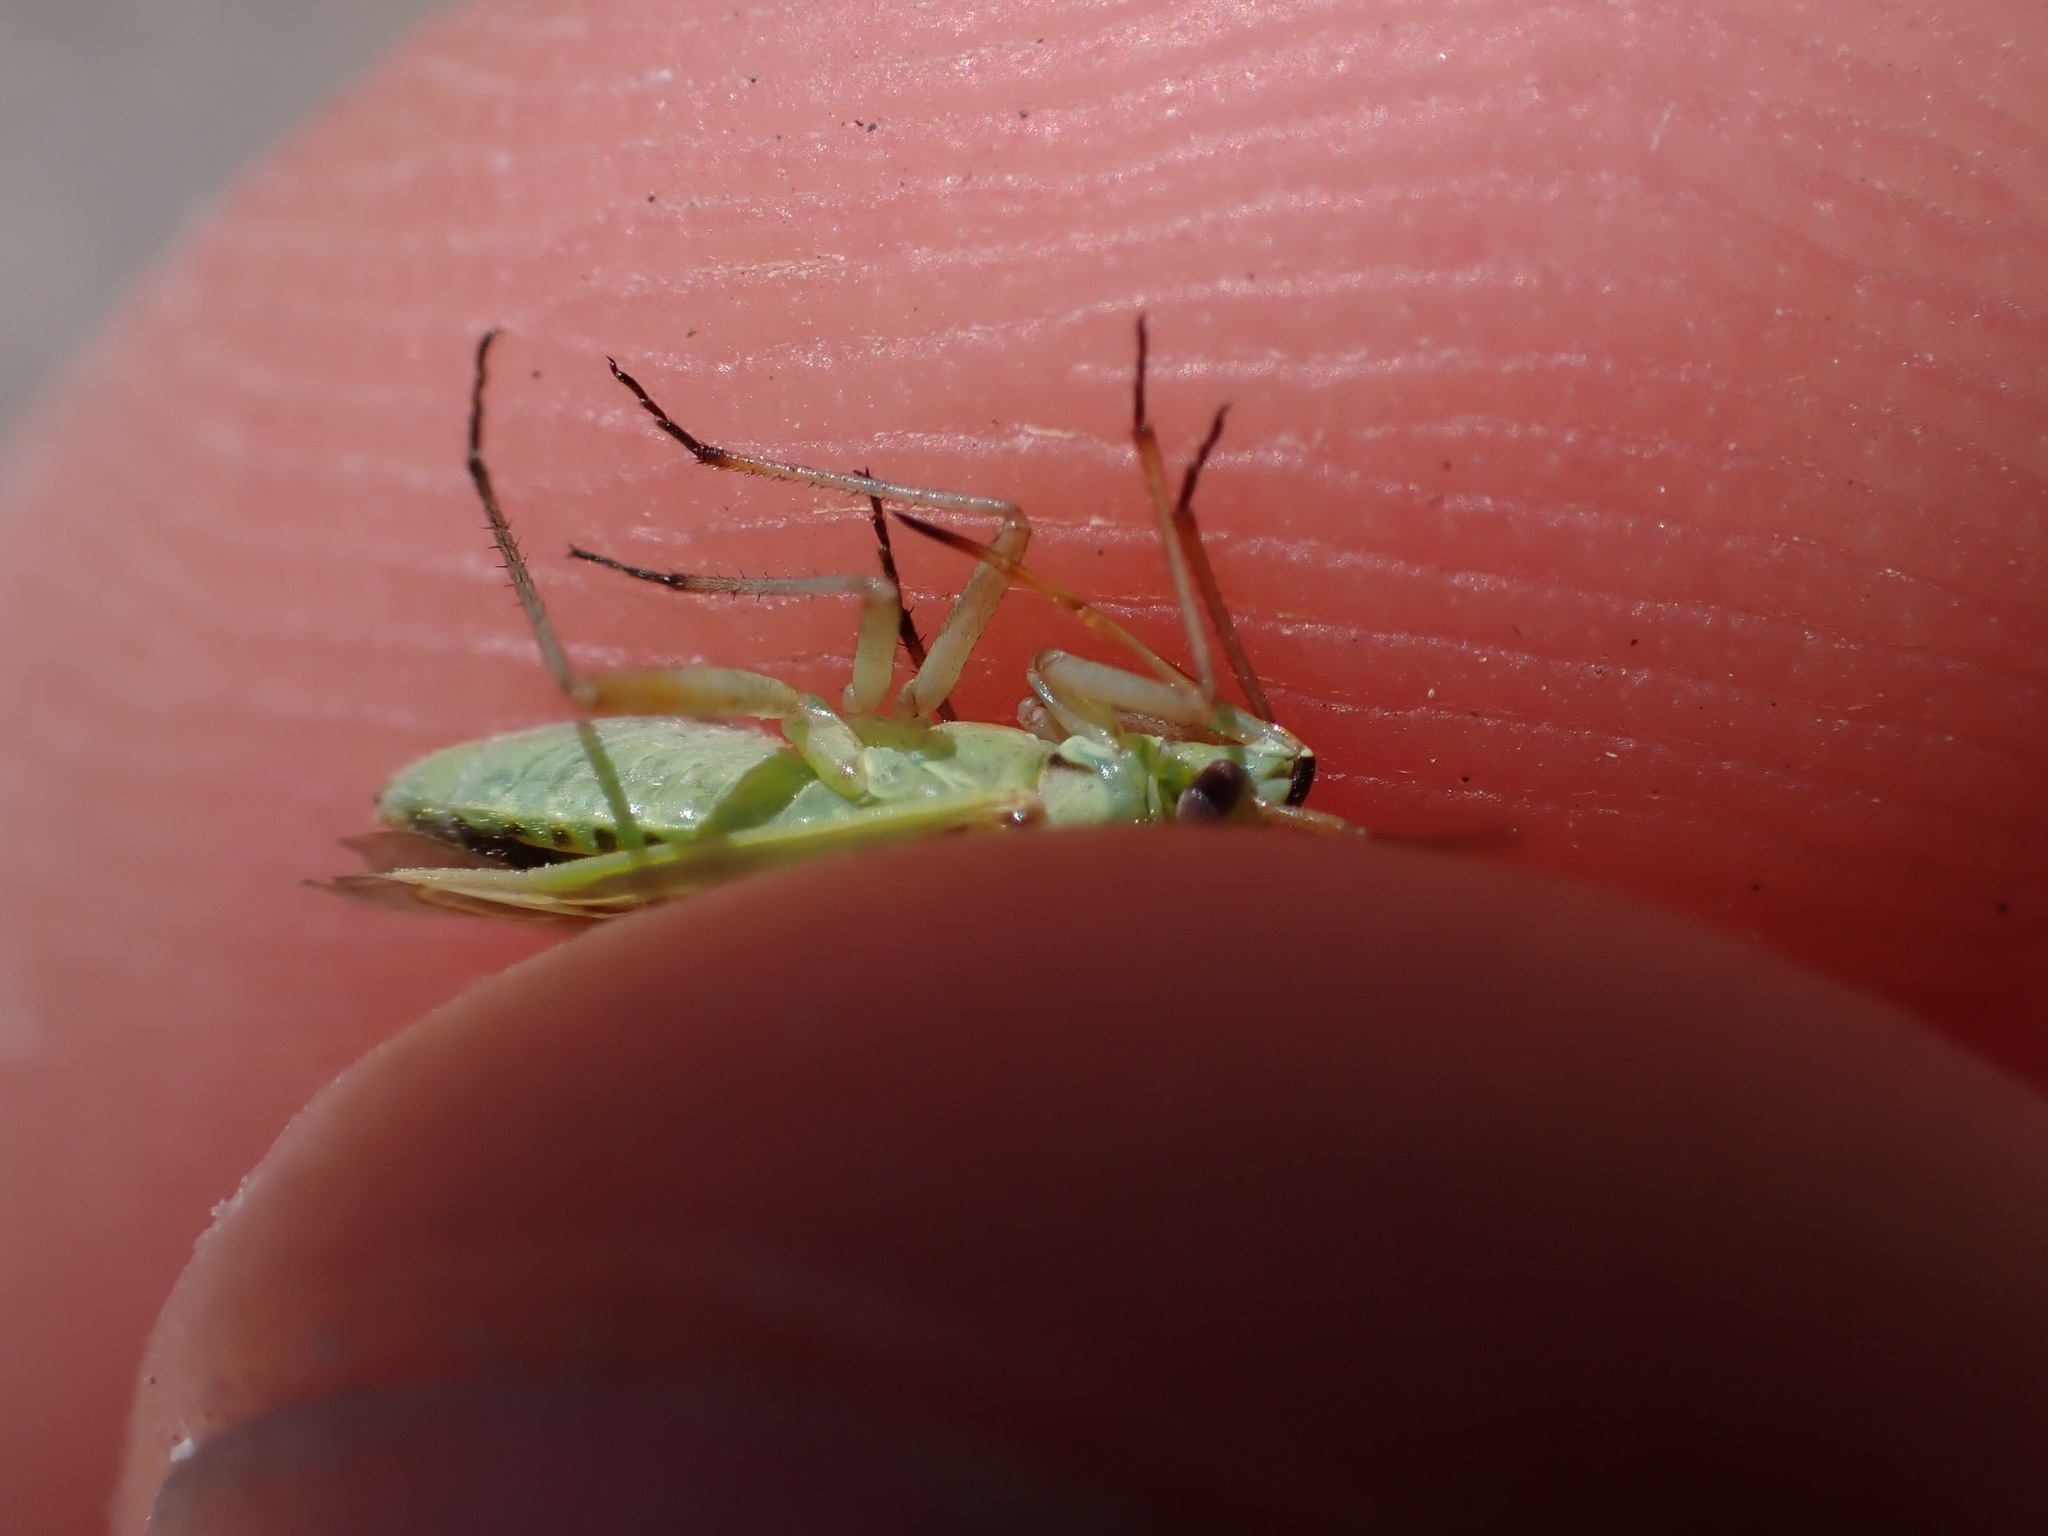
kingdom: Animalia
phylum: Arthropoda
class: Insecta
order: Hemiptera
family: Miridae
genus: Stenotus
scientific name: Stenotus binotatus
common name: Plant bug
